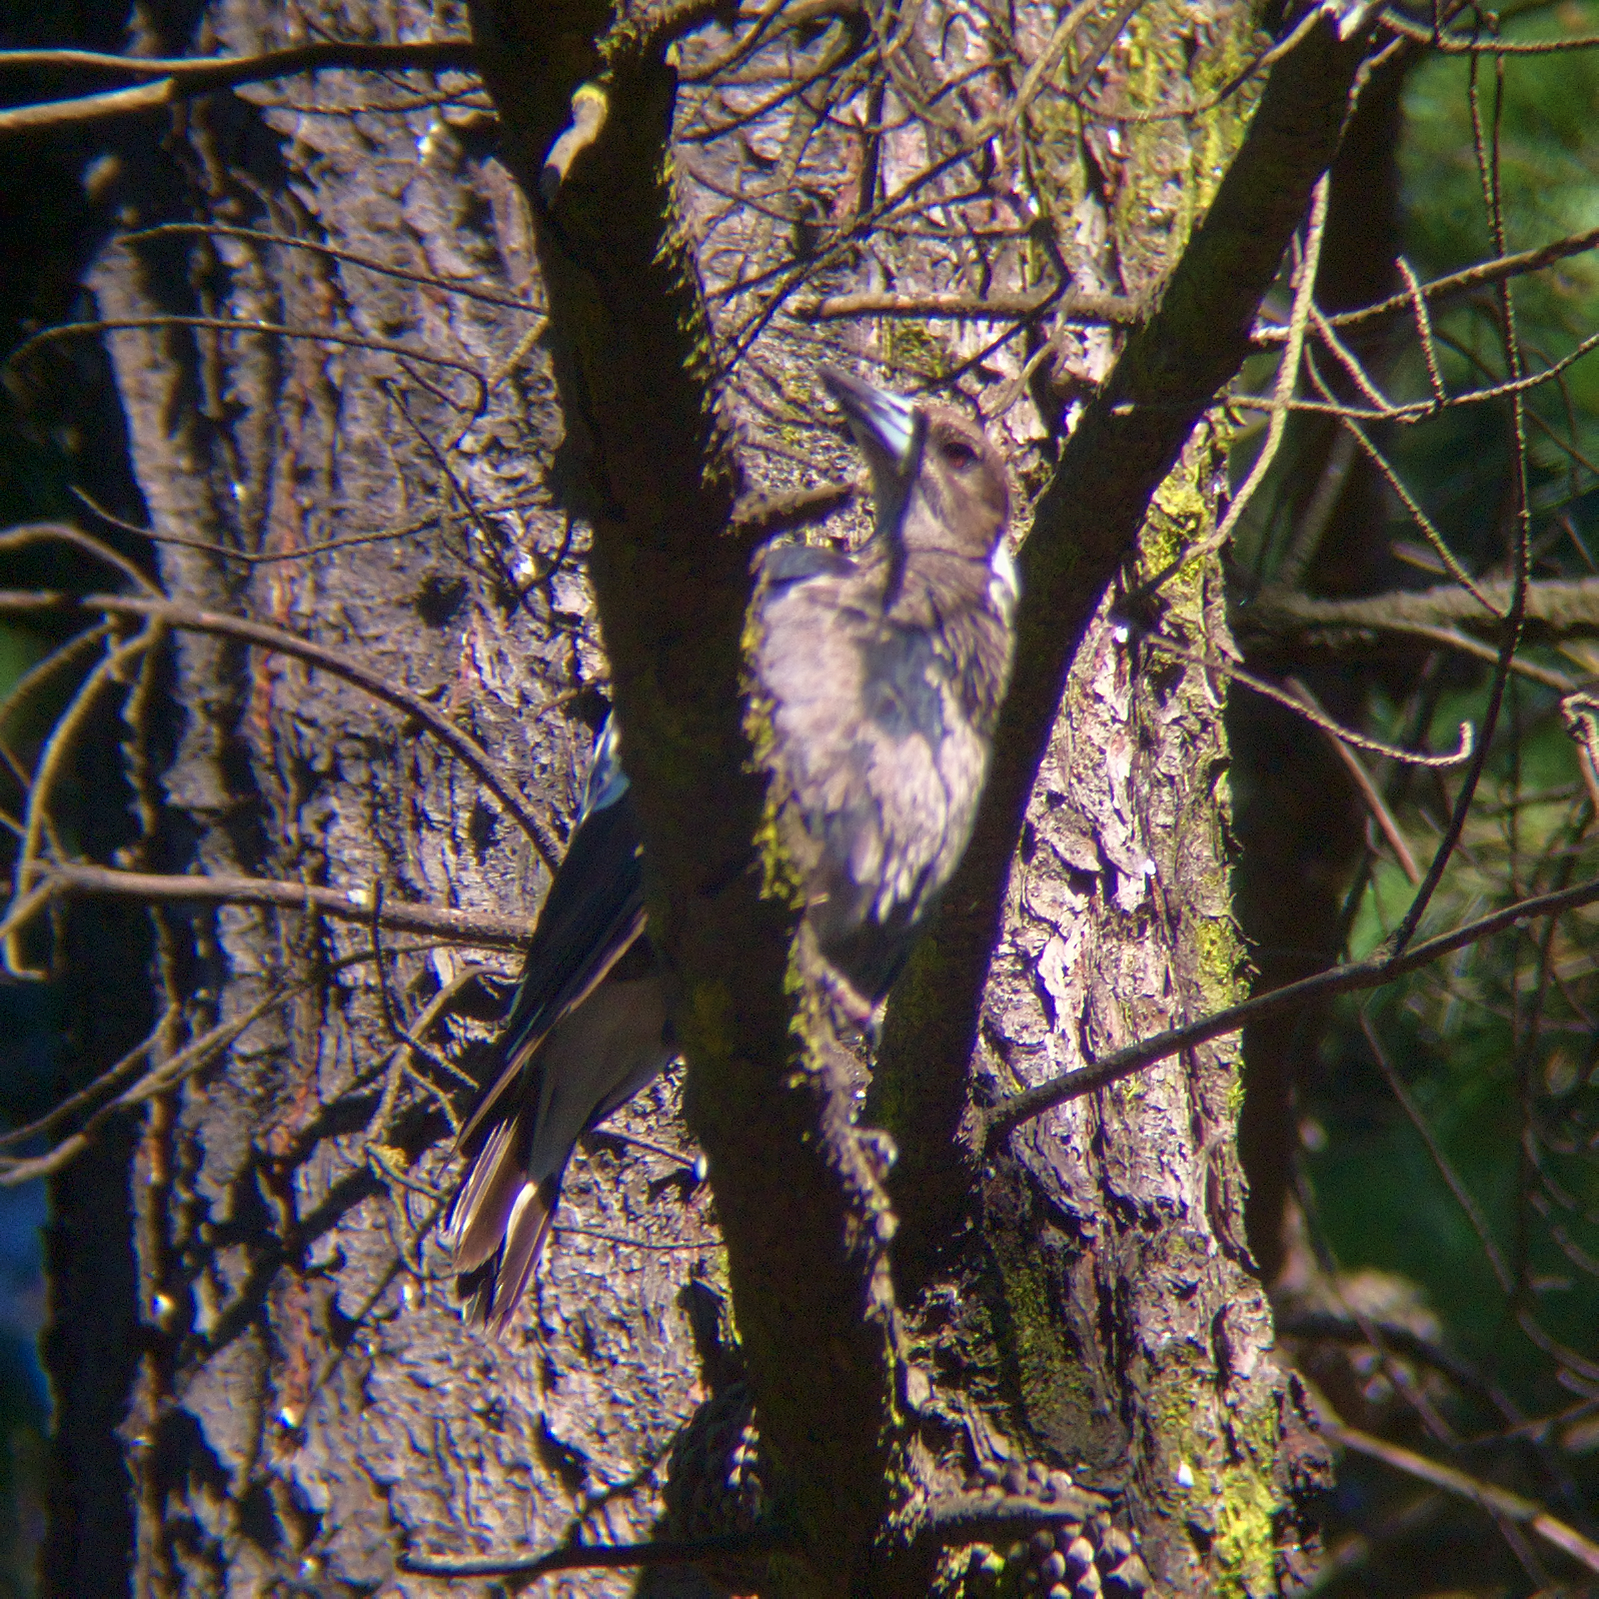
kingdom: Animalia
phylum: Chordata
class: Aves
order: Passeriformes
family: Cracticidae
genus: Gymnorhina
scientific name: Gymnorhina tibicen
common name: Australian magpie
